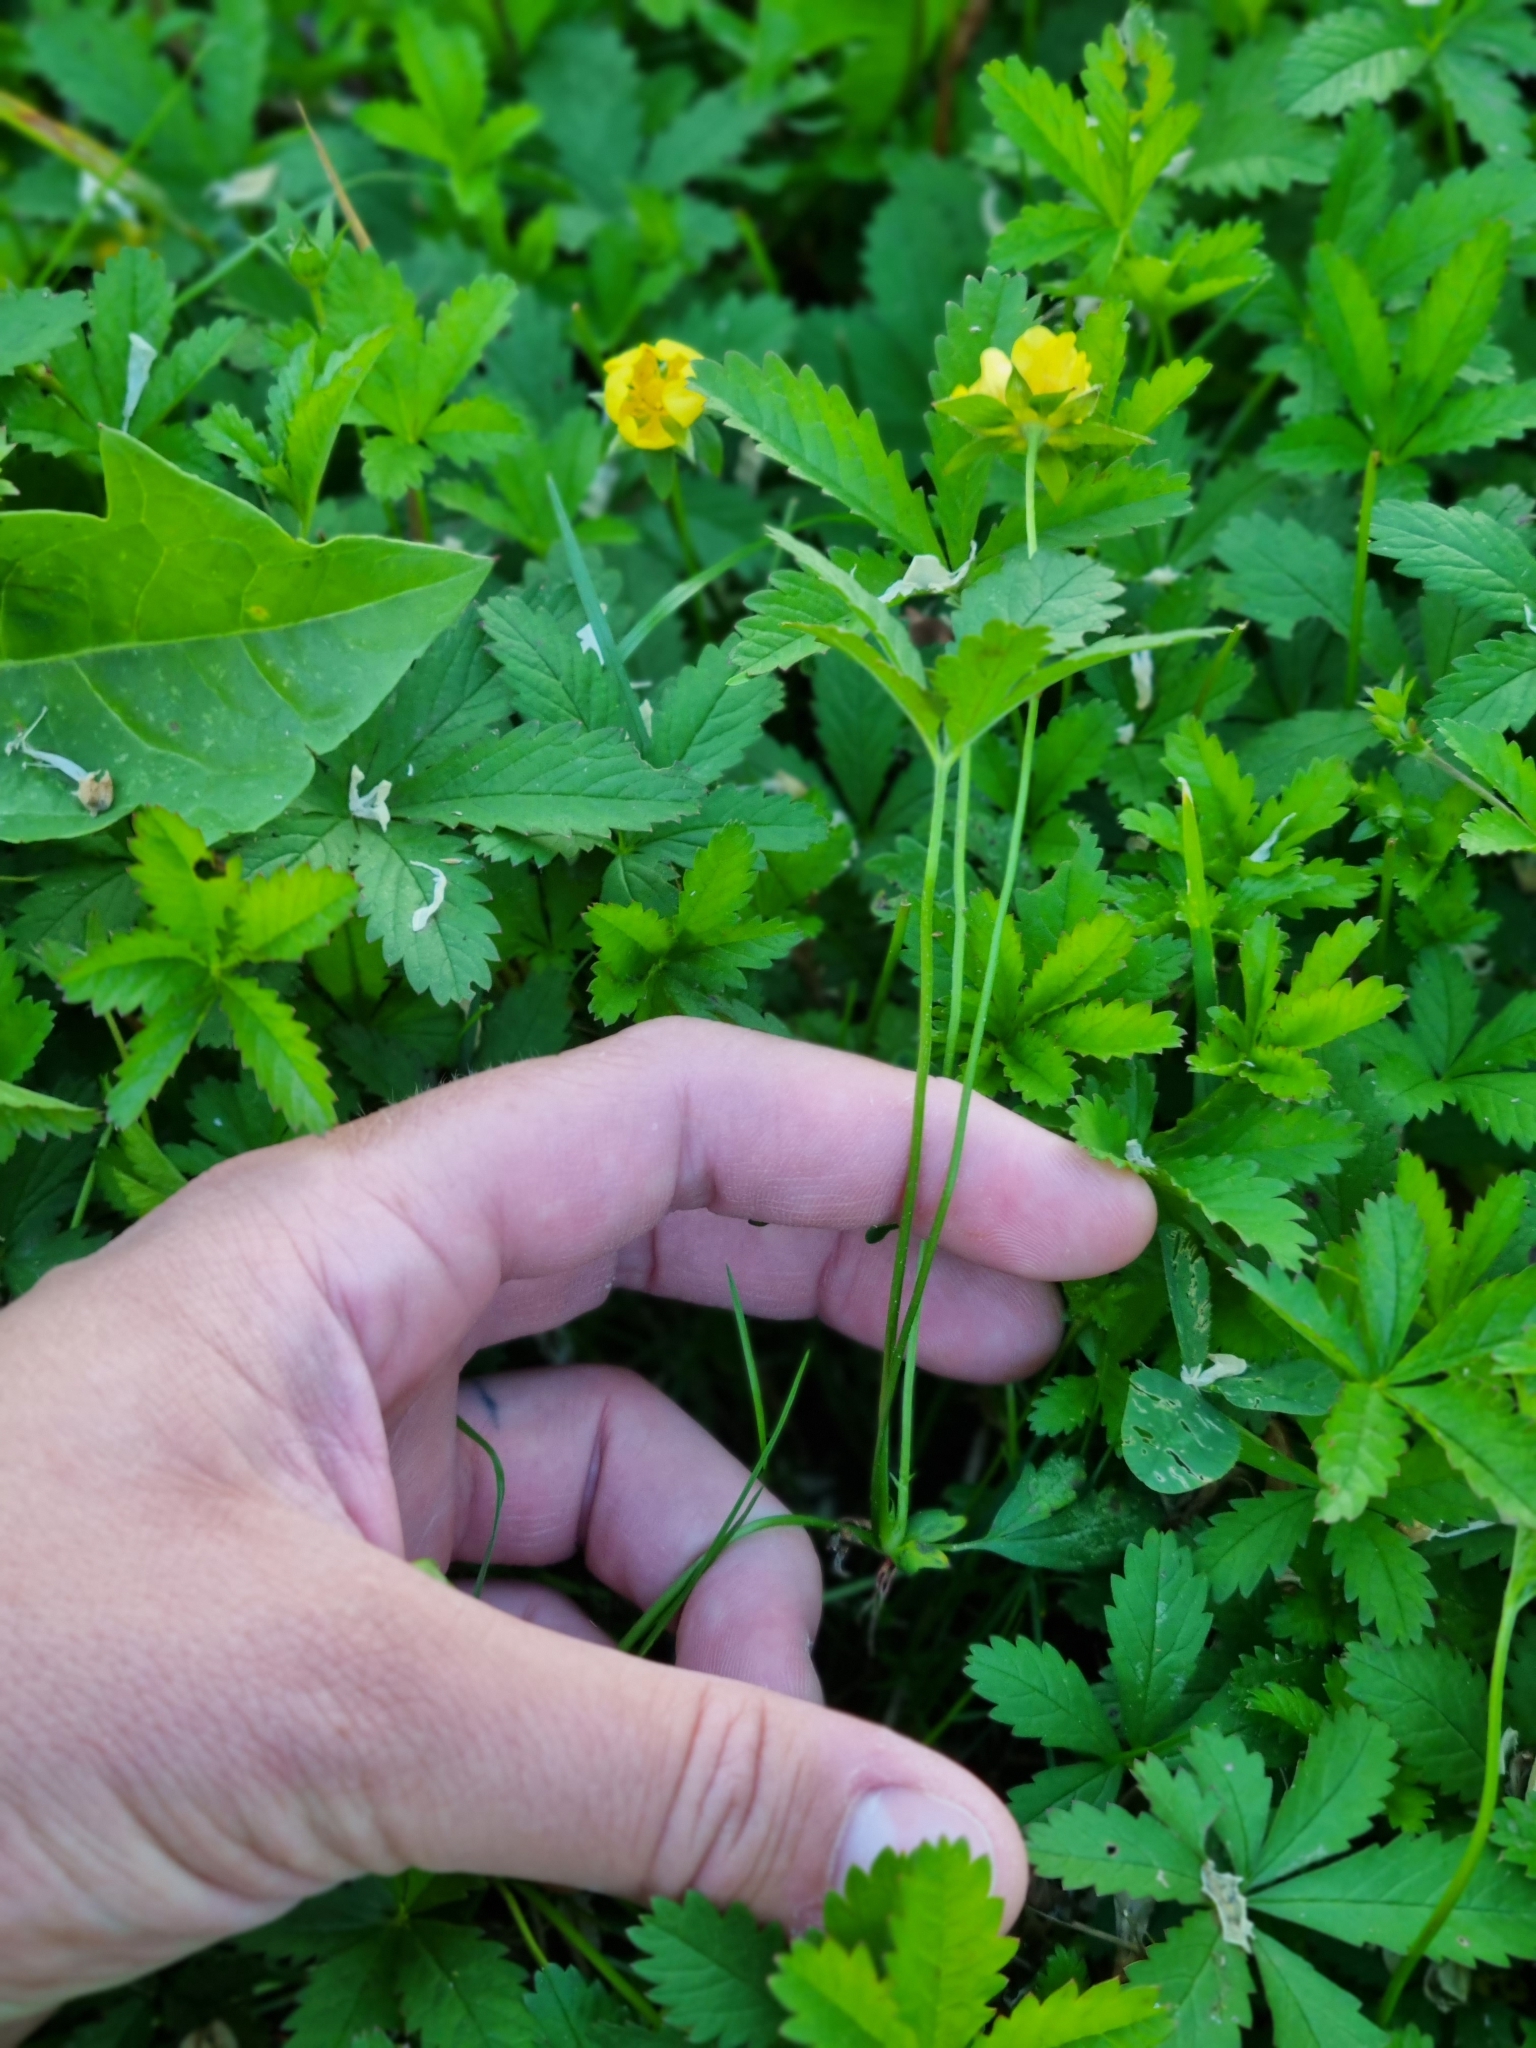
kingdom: Plantae
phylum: Tracheophyta
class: Magnoliopsida
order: Rosales
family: Rosaceae
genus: Potentilla
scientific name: Potentilla reptans
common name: Creeping cinquefoil
